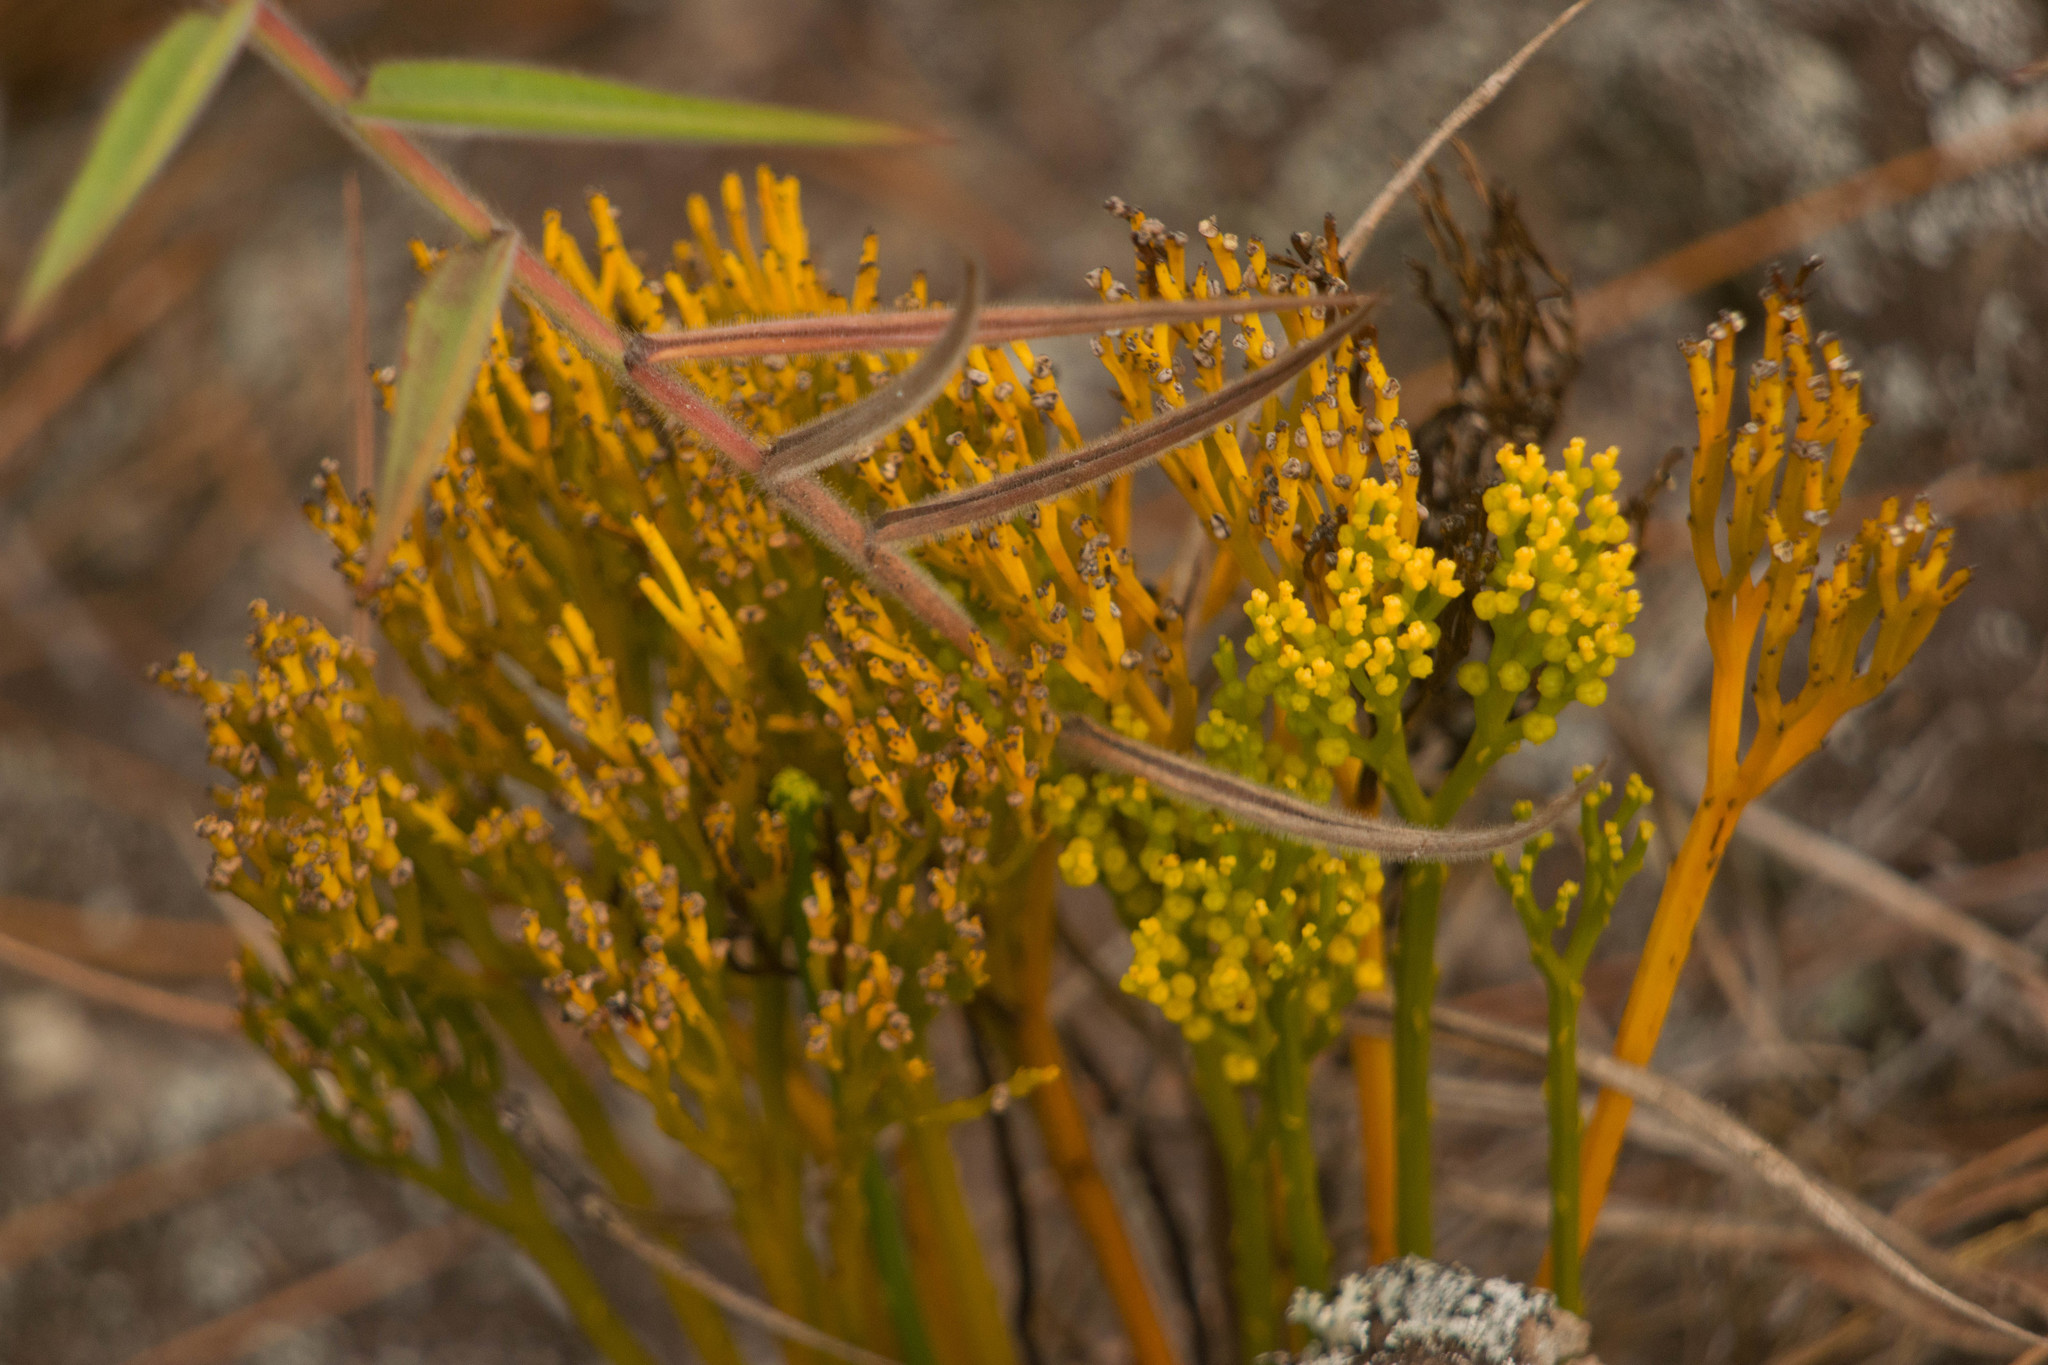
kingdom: Plantae
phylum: Tracheophyta
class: Polypodiopsida
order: Psilotales
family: Psilotaceae
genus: Psilotum
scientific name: Psilotum nudum
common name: Skeleton fork fern
